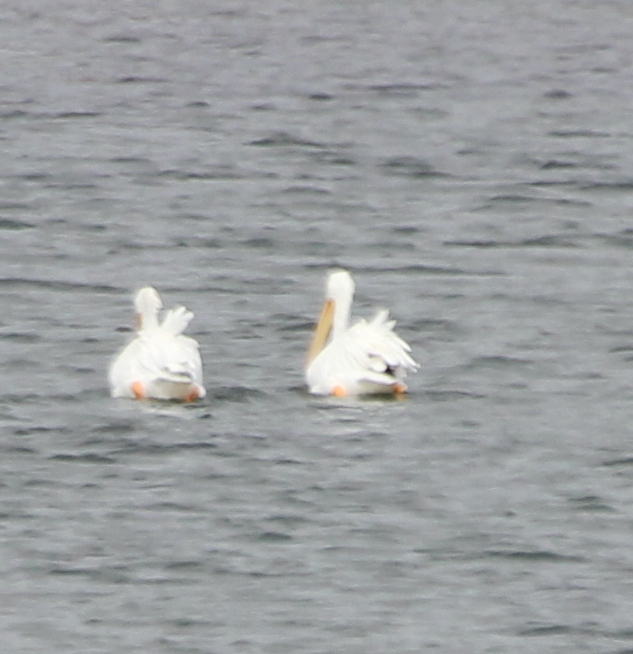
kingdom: Animalia
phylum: Chordata
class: Aves
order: Pelecaniformes
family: Pelecanidae
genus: Pelecanus
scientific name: Pelecanus erythrorhynchos
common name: American white pelican
